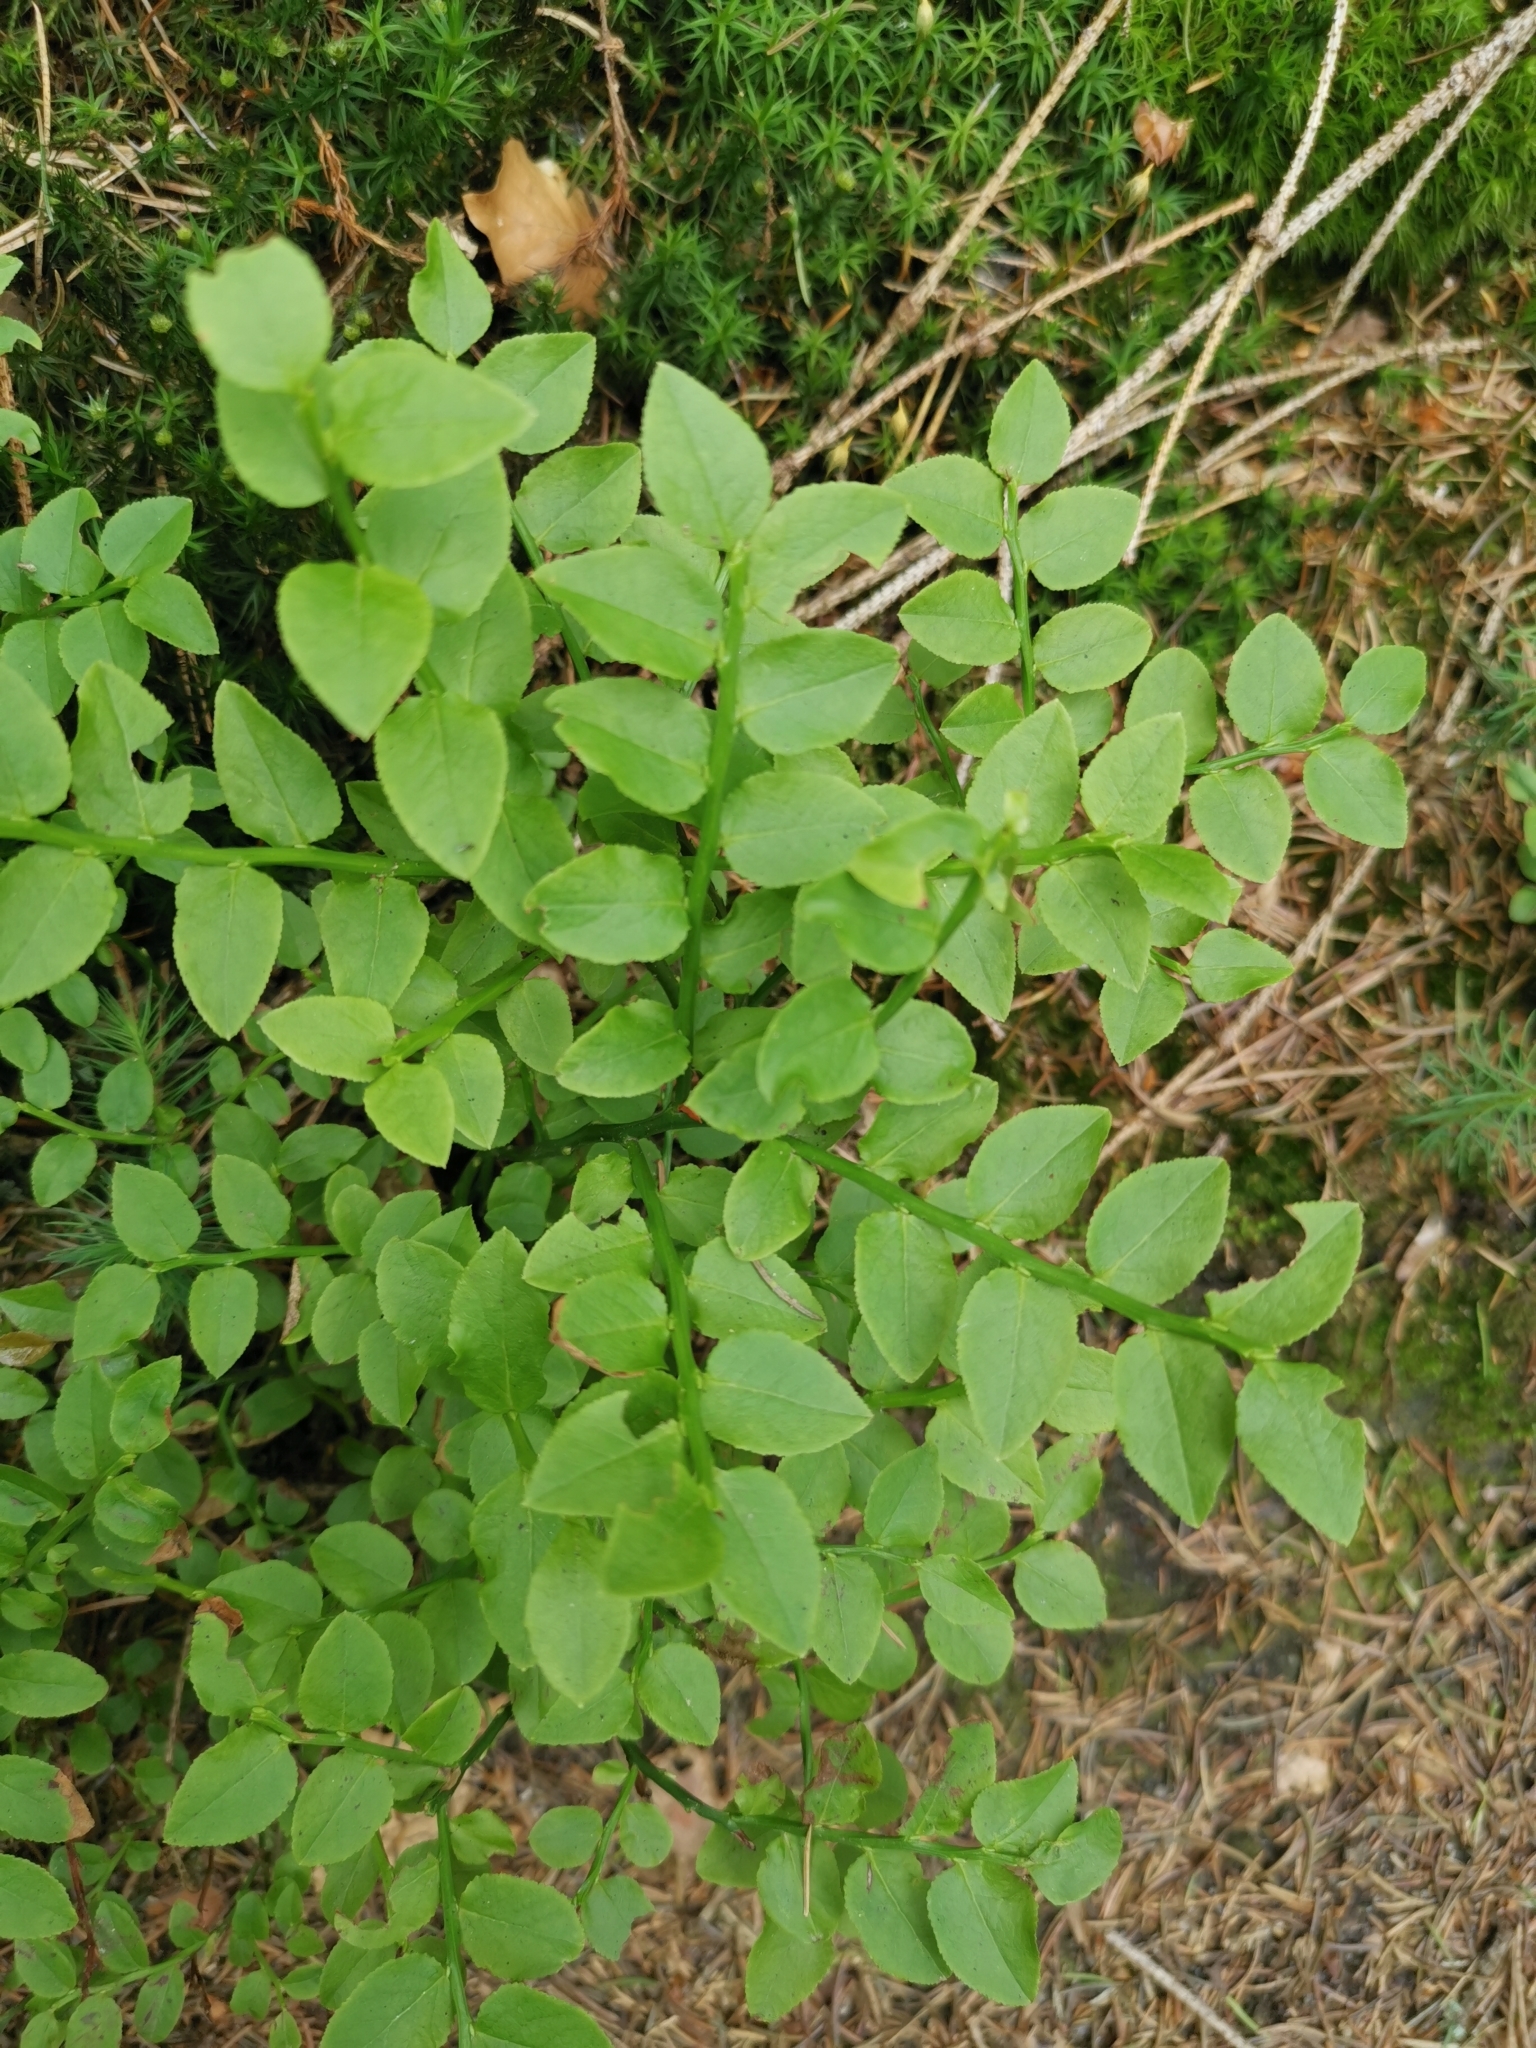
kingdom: Plantae
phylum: Tracheophyta
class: Magnoliopsida
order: Ericales
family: Ericaceae
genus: Vaccinium
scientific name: Vaccinium myrtillus
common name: Bilberry
